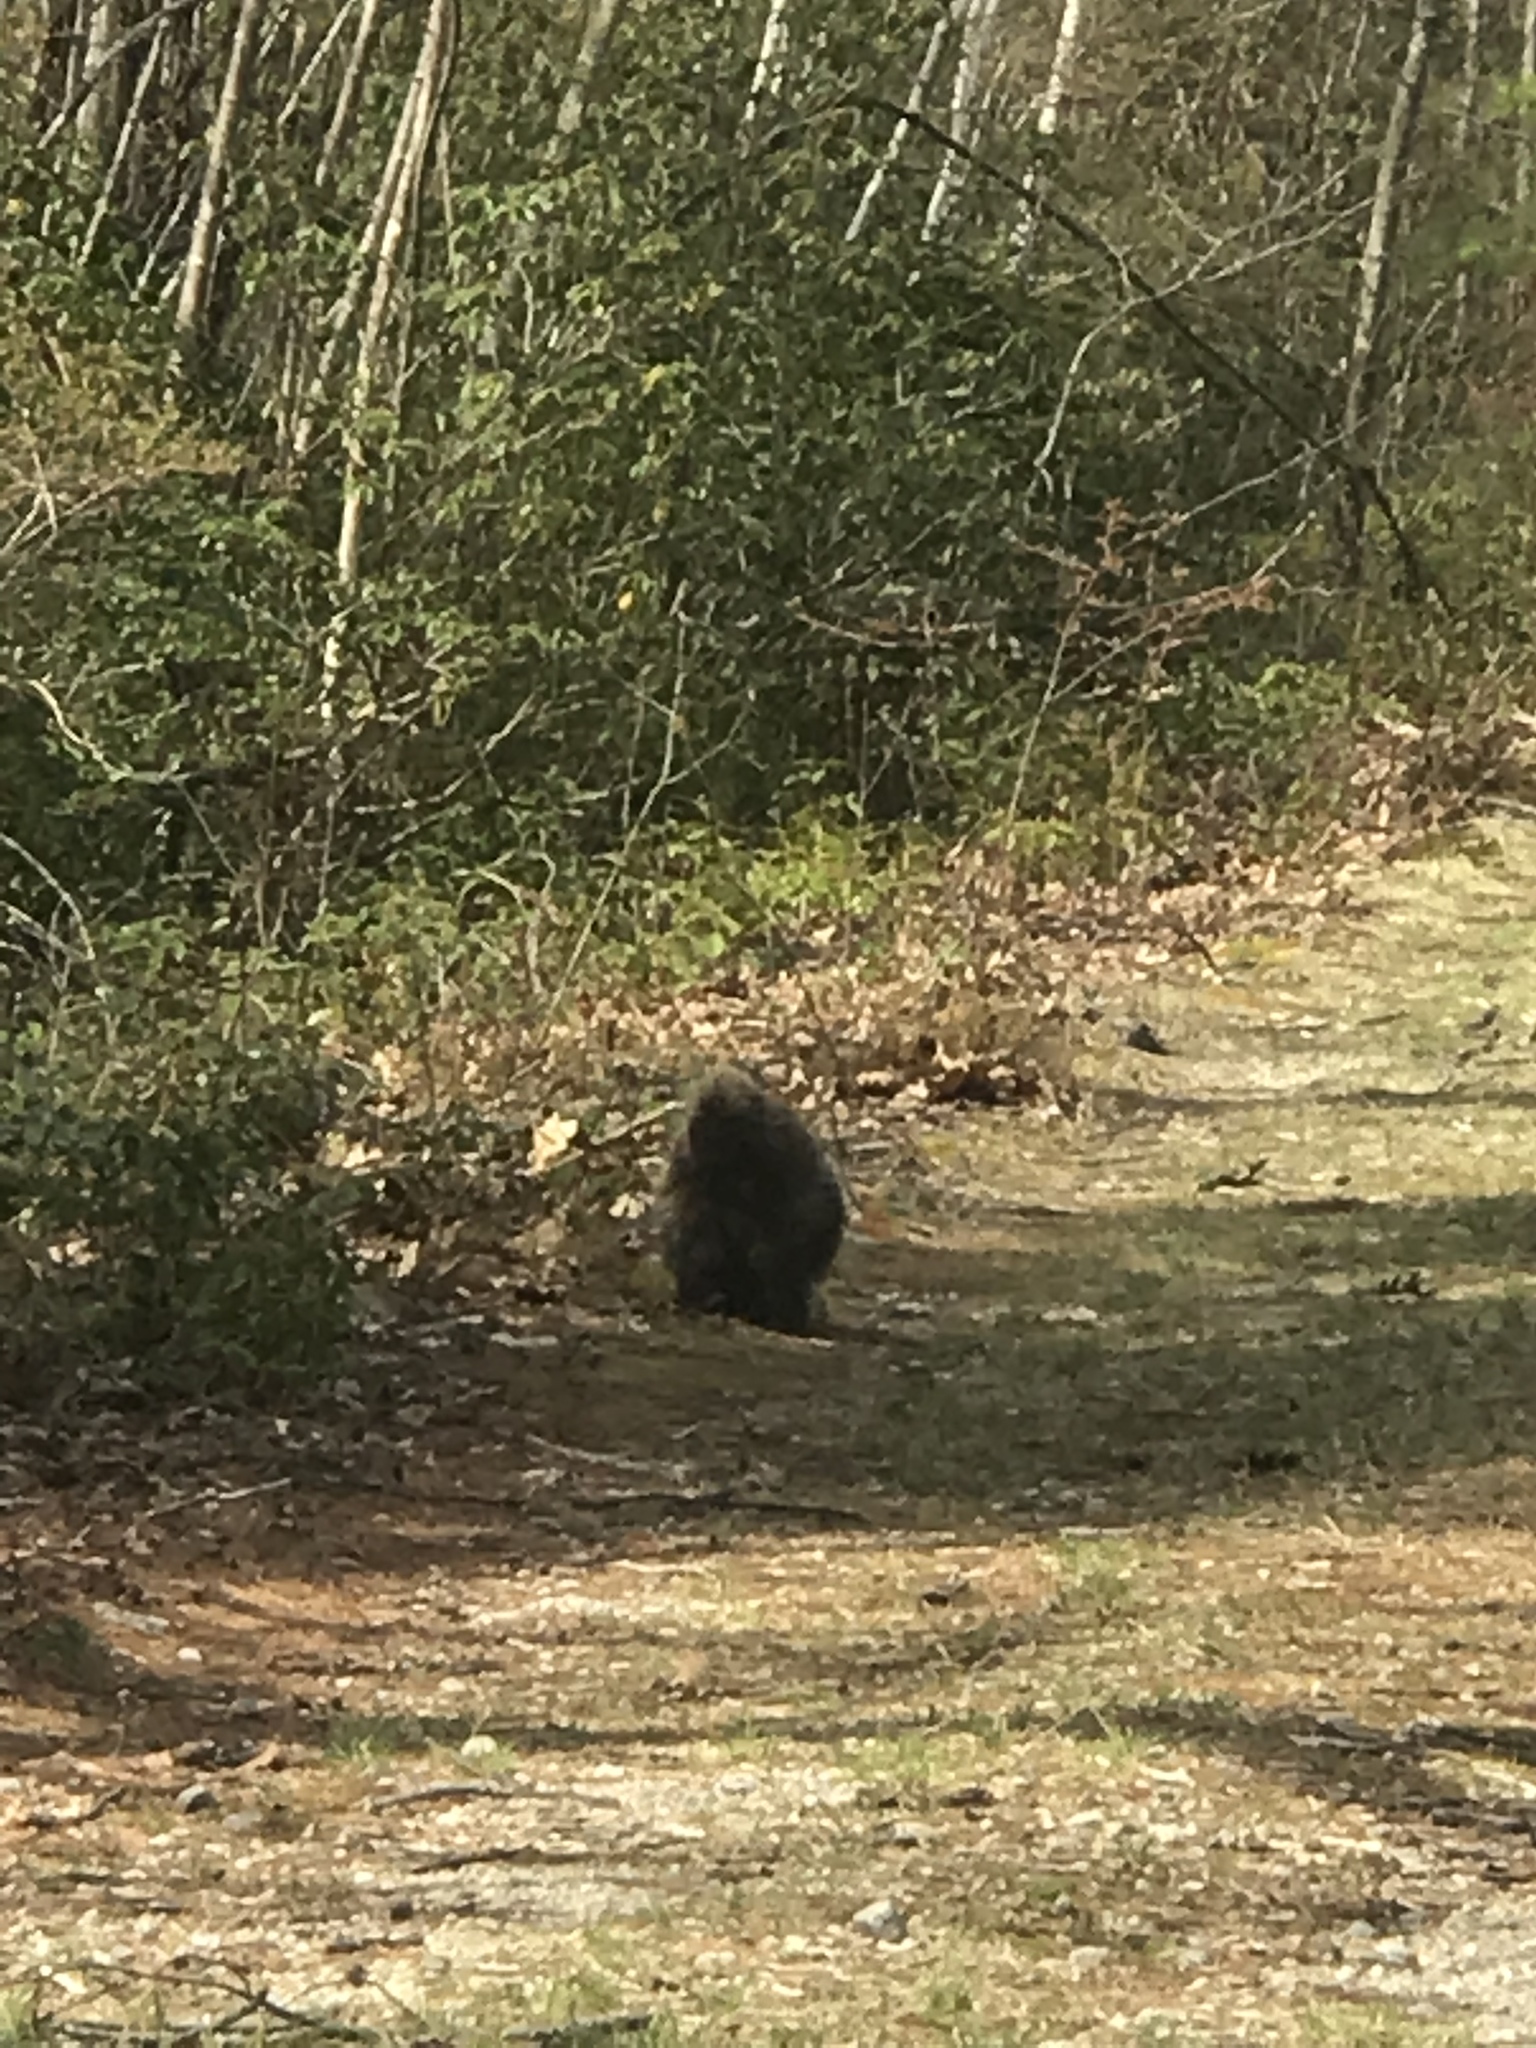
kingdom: Animalia
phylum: Chordata
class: Mammalia
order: Rodentia
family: Erethizontidae
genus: Erethizon
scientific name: Erethizon dorsatus
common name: North american porcupine
